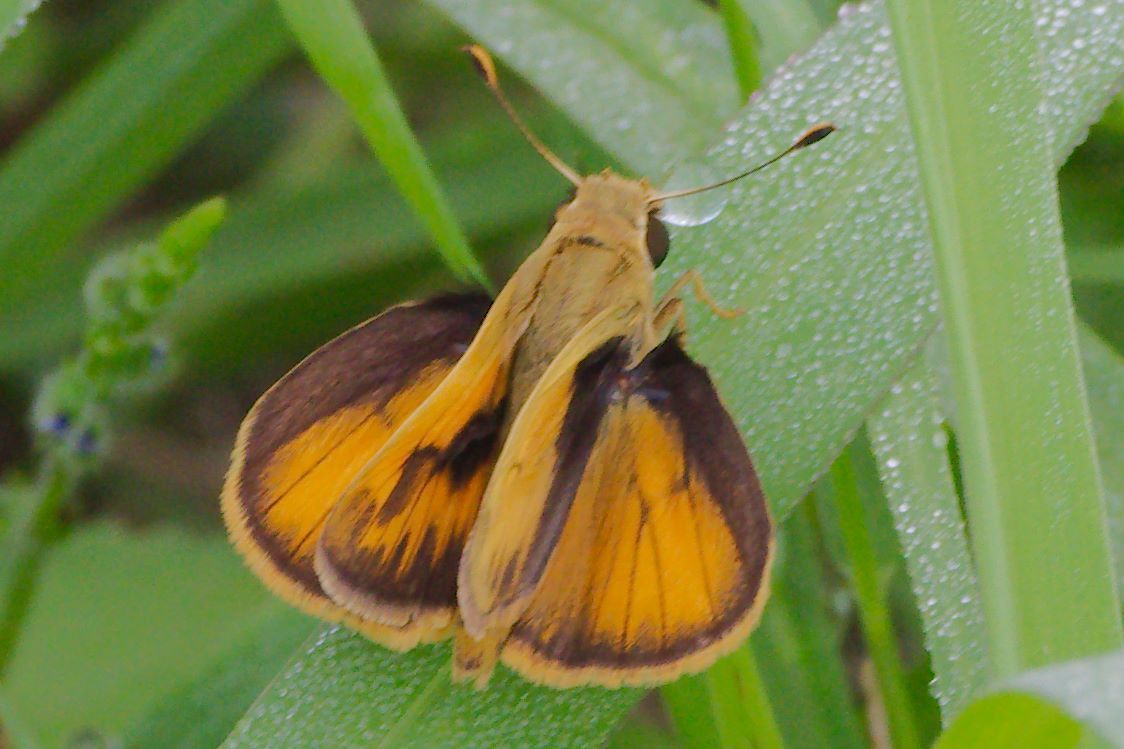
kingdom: Animalia
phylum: Arthropoda
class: Insecta
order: Lepidoptera
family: Hesperiidae
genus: Polites
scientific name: Polites vibex
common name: Whirlabout
